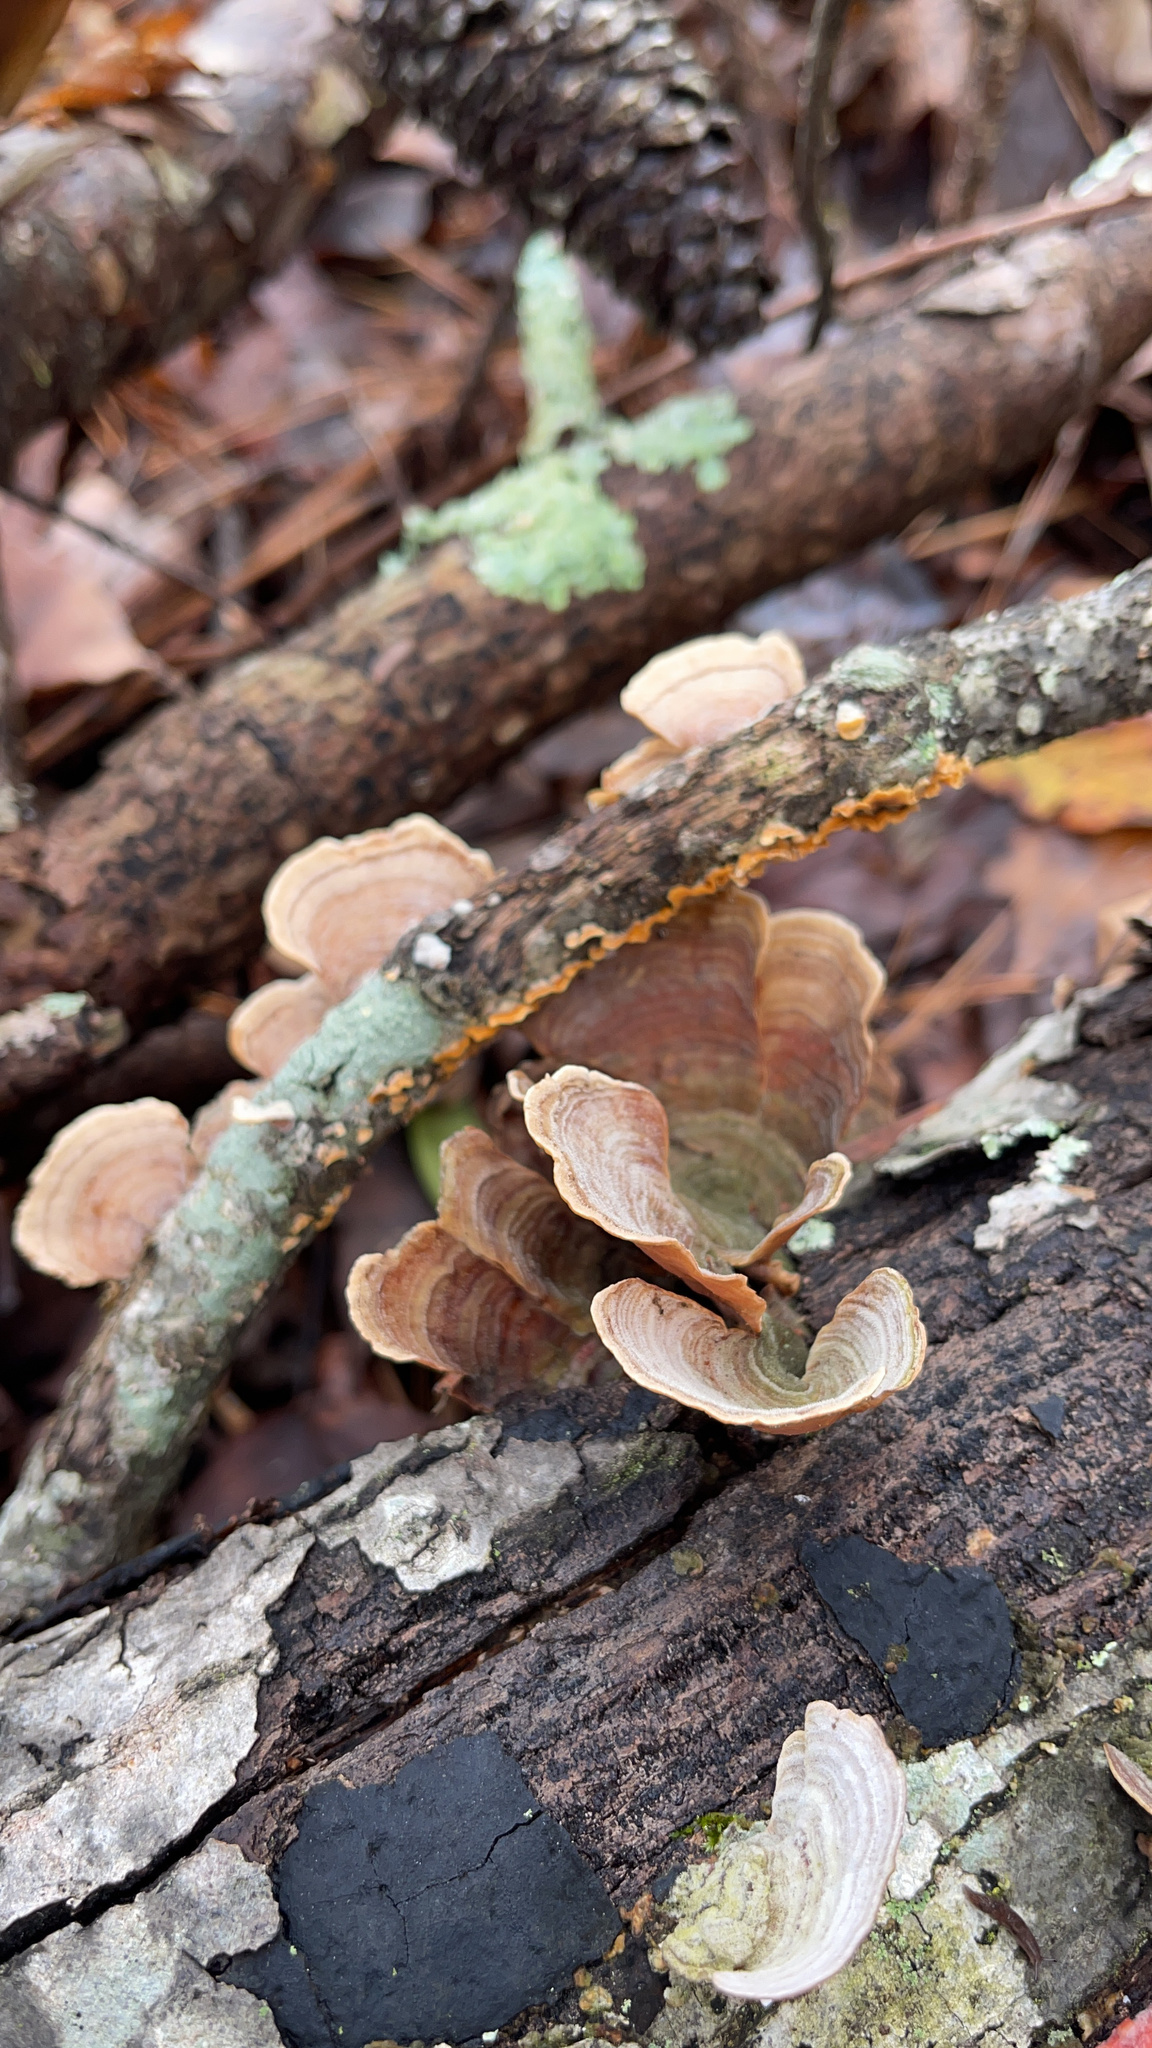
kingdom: Fungi
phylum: Basidiomycota
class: Agaricomycetes
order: Russulales
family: Stereaceae
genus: Stereum
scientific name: Stereum ostrea
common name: False turkeytail
